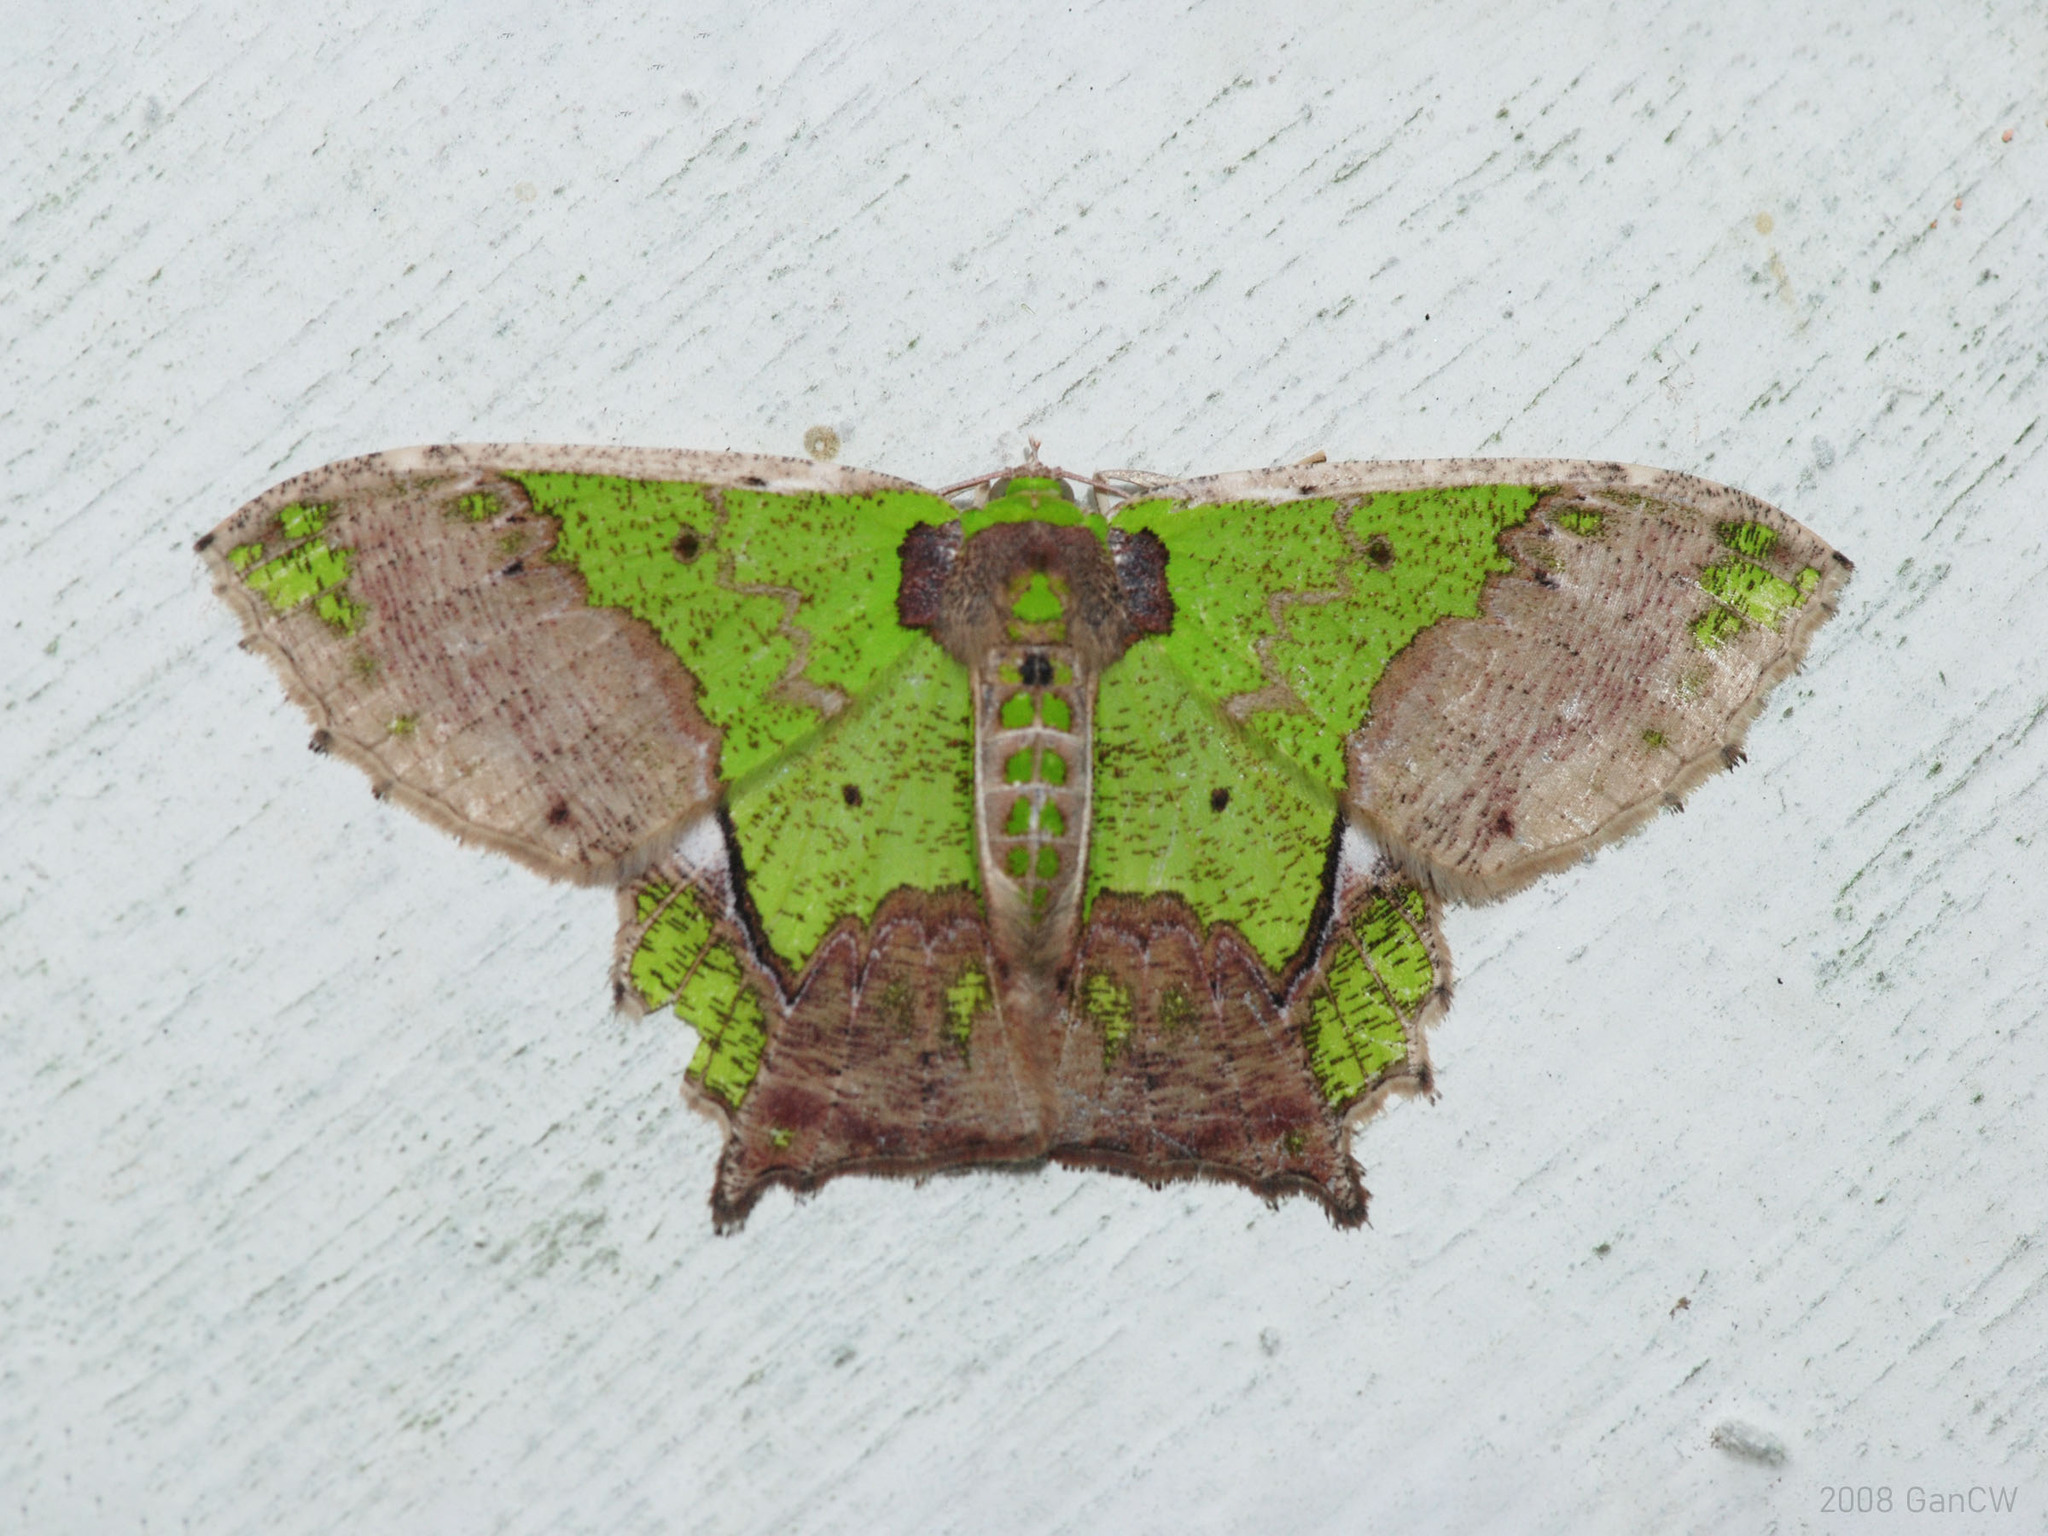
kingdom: Animalia
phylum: Arthropoda
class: Insecta
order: Lepidoptera
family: Geometridae
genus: Agathia
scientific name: Agathia codina
